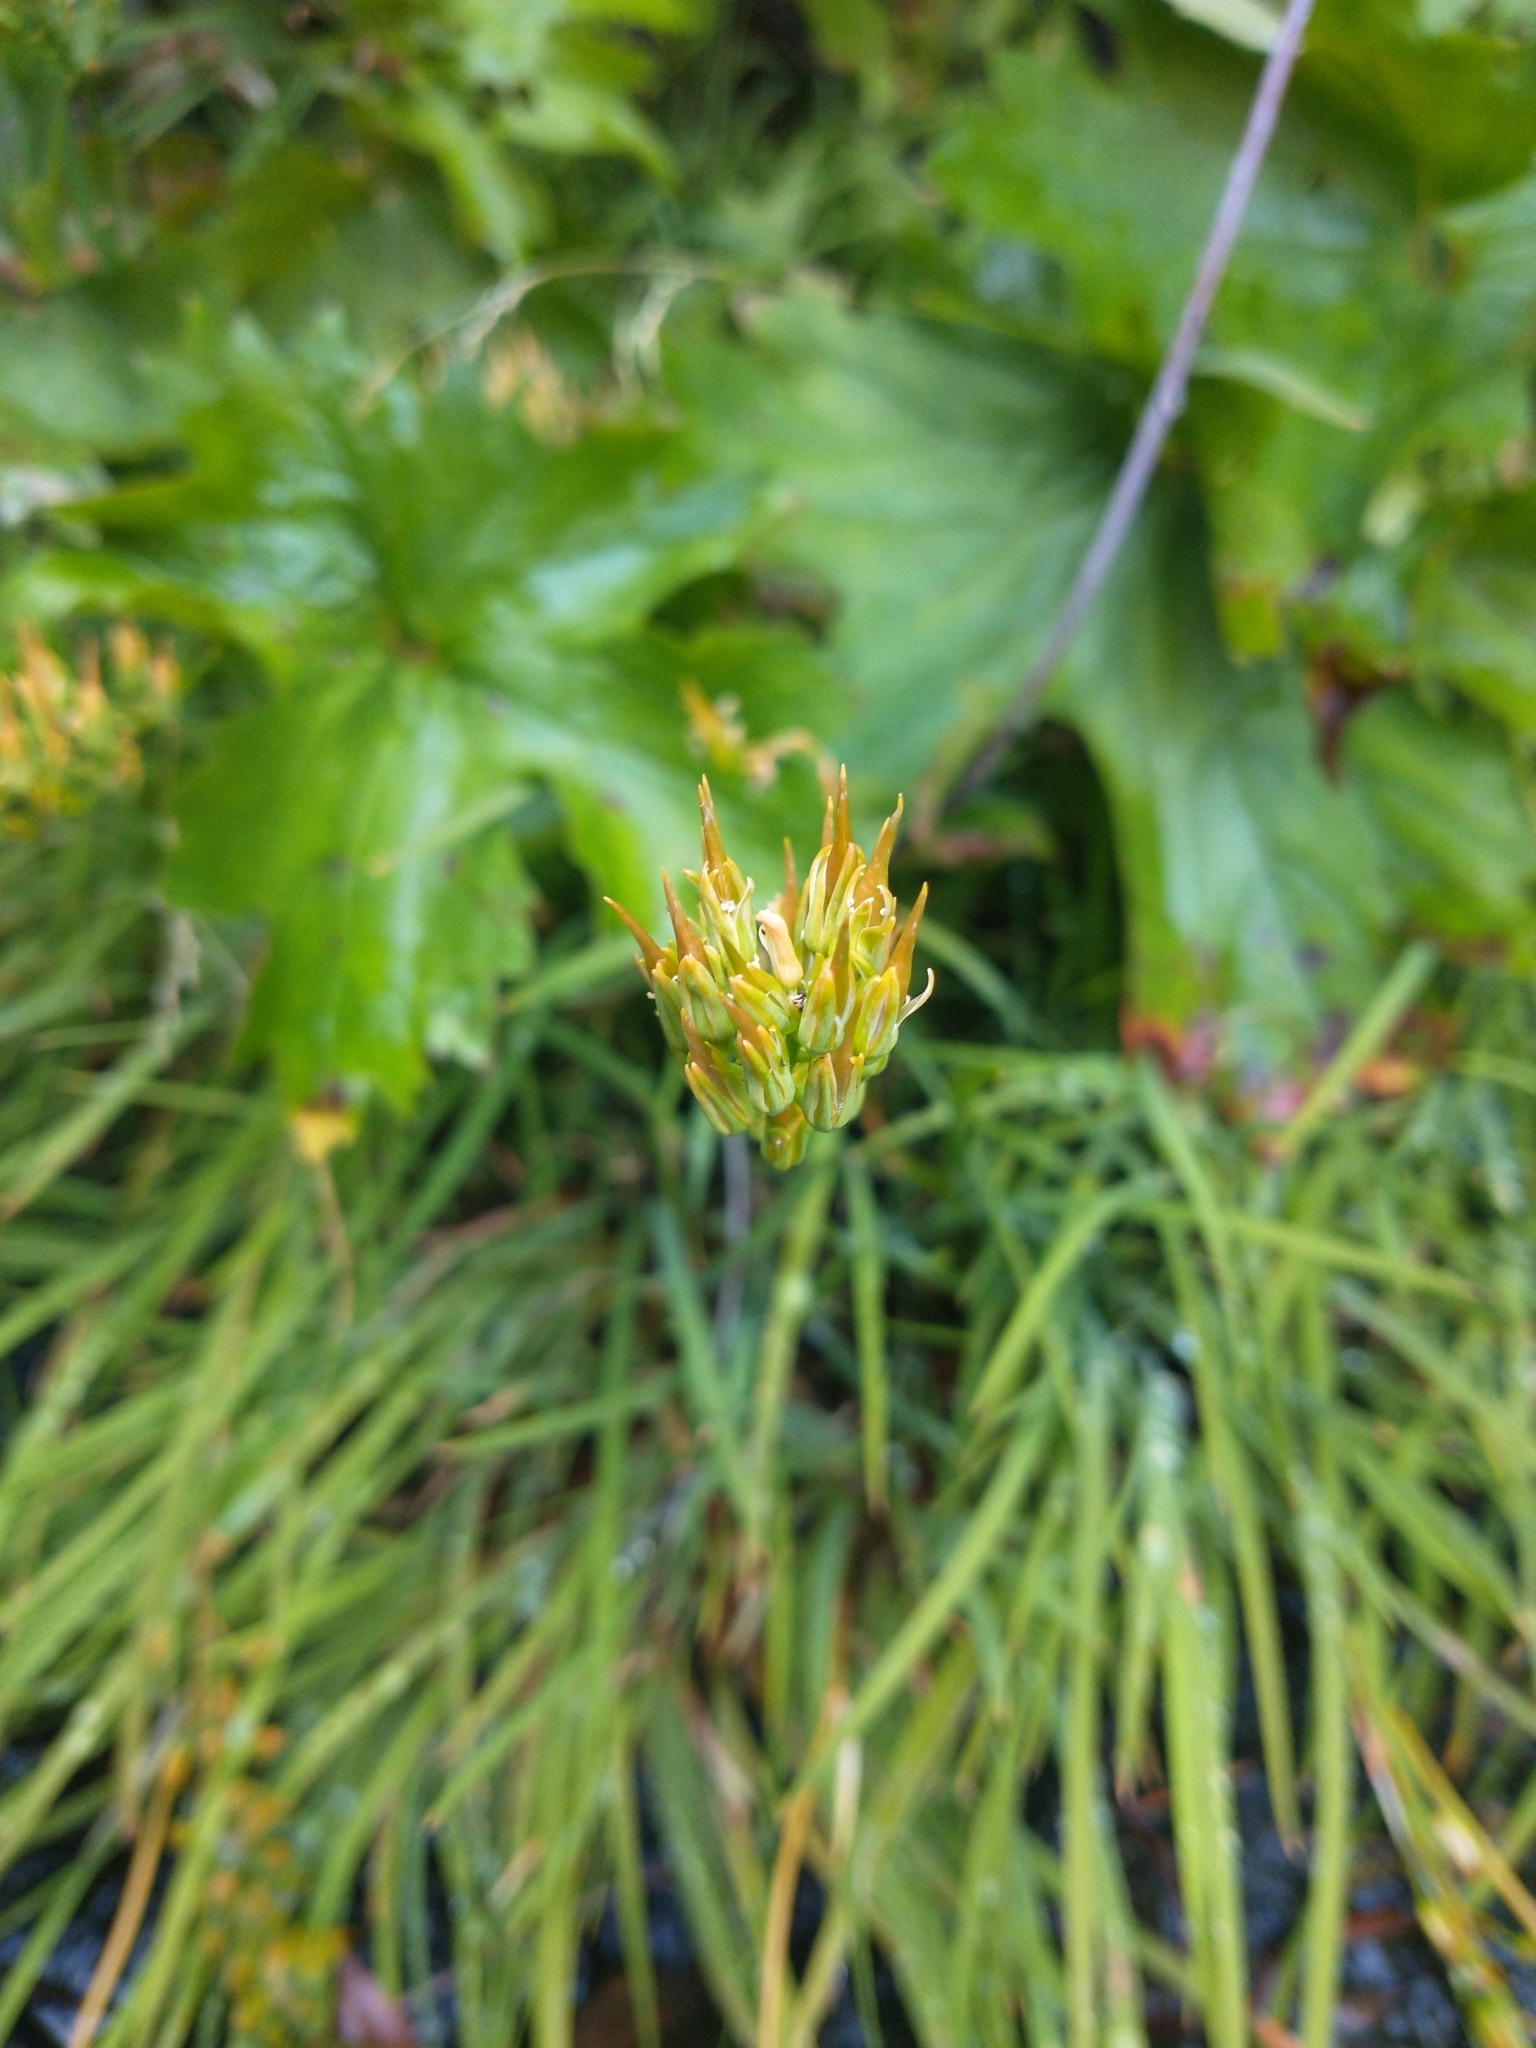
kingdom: Plantae
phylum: Tracheophyta
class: Liliopsida
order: Dioscoreales
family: Nartheciaceae
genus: Narthecium
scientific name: Narthecium californicum
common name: California bog-asphodel
